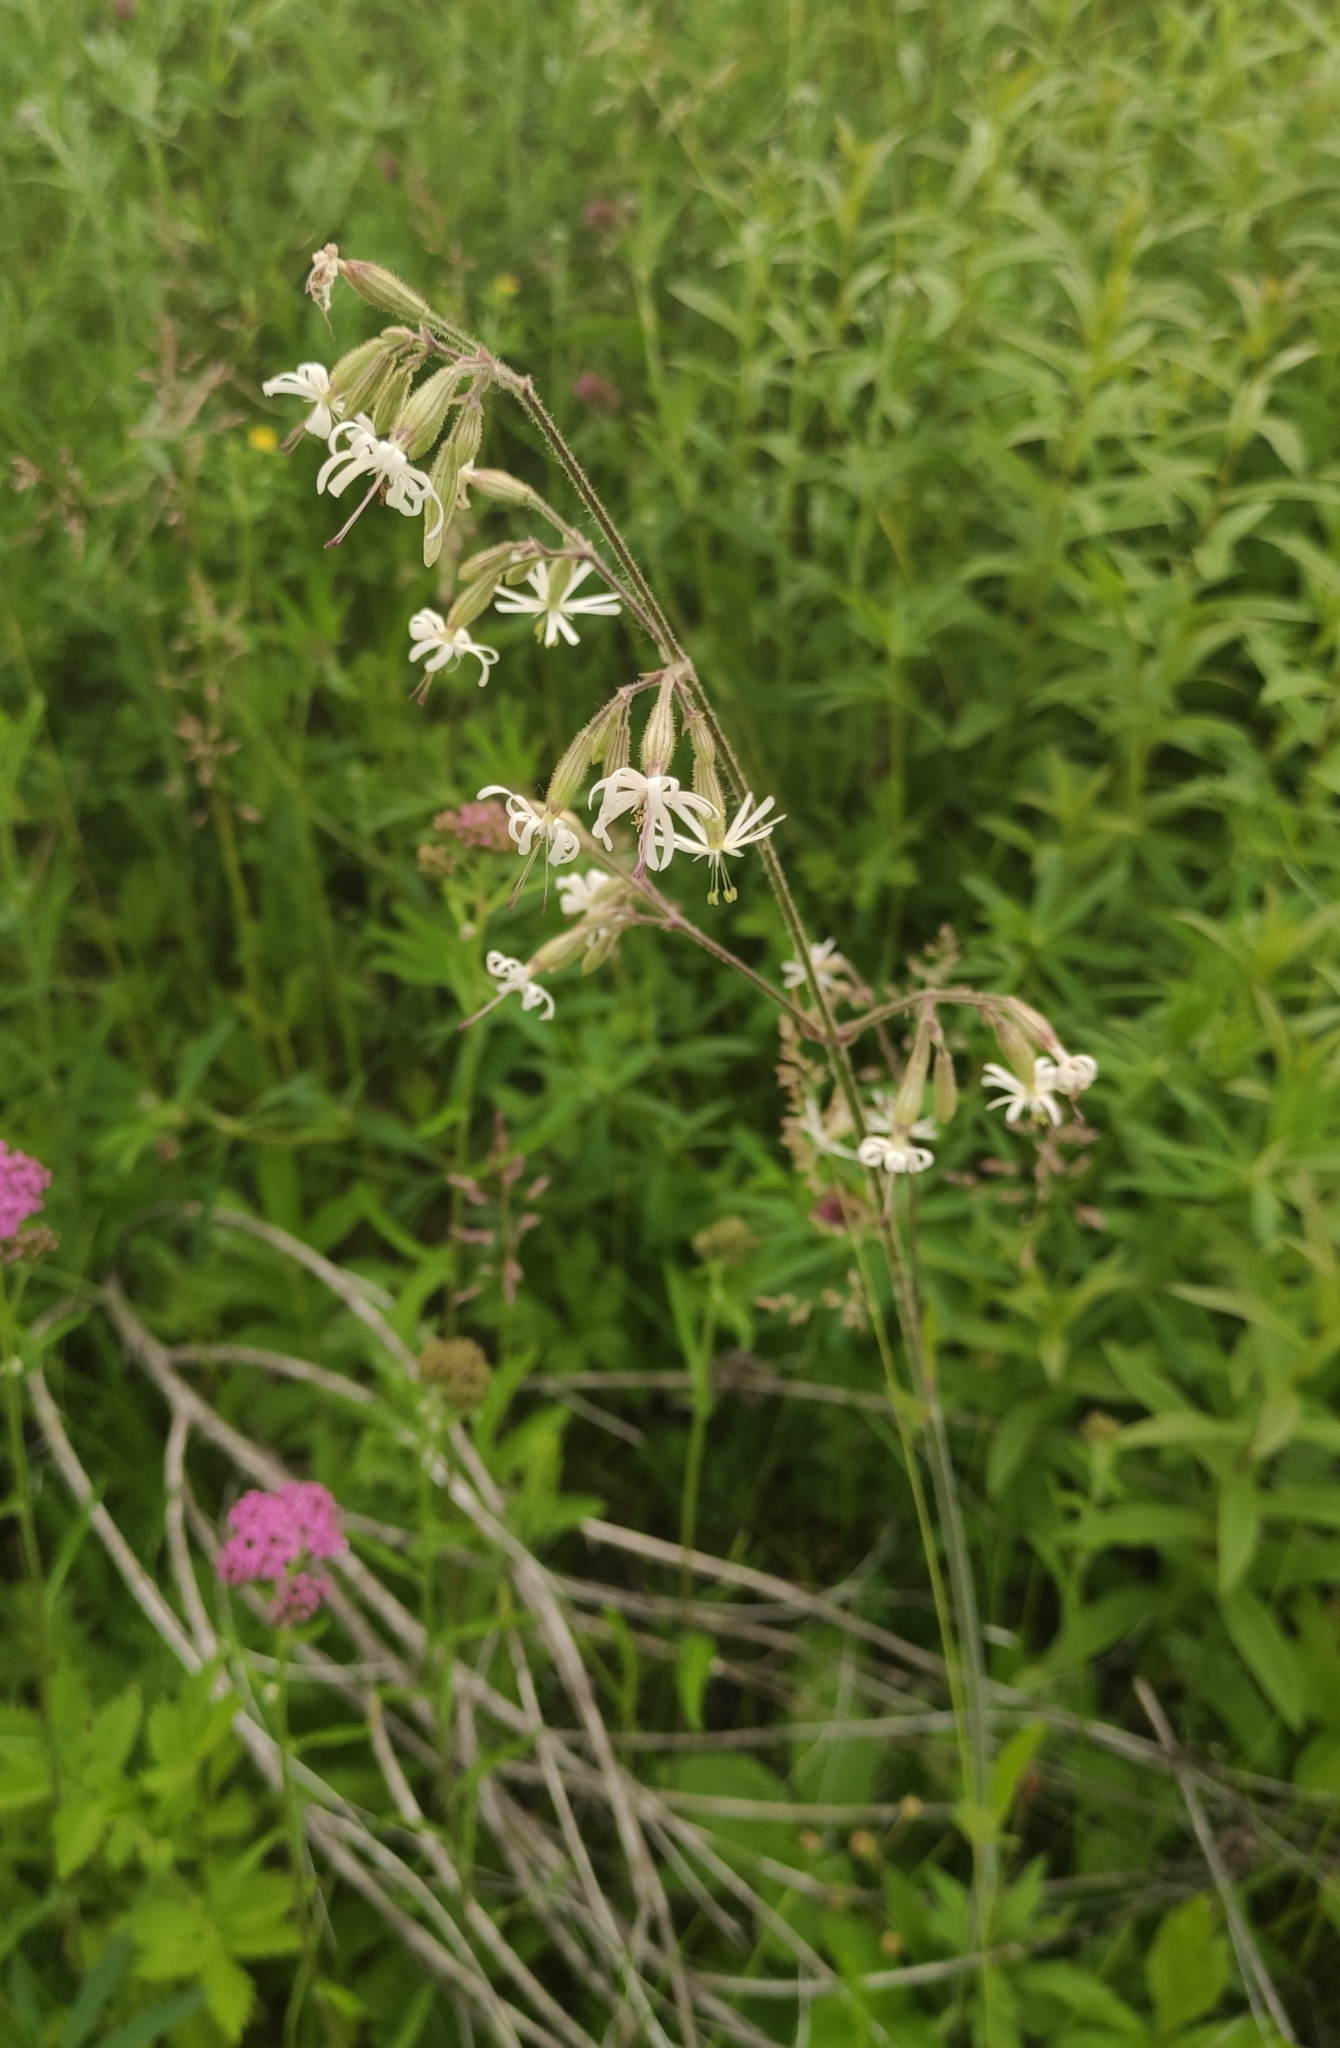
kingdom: Plantae
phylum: Tracheophyta
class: Magnoliopsida
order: Caryophyllales
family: Caryophyllaceae
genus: Silene
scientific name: Silene nutans
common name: Nottingham catchfly
